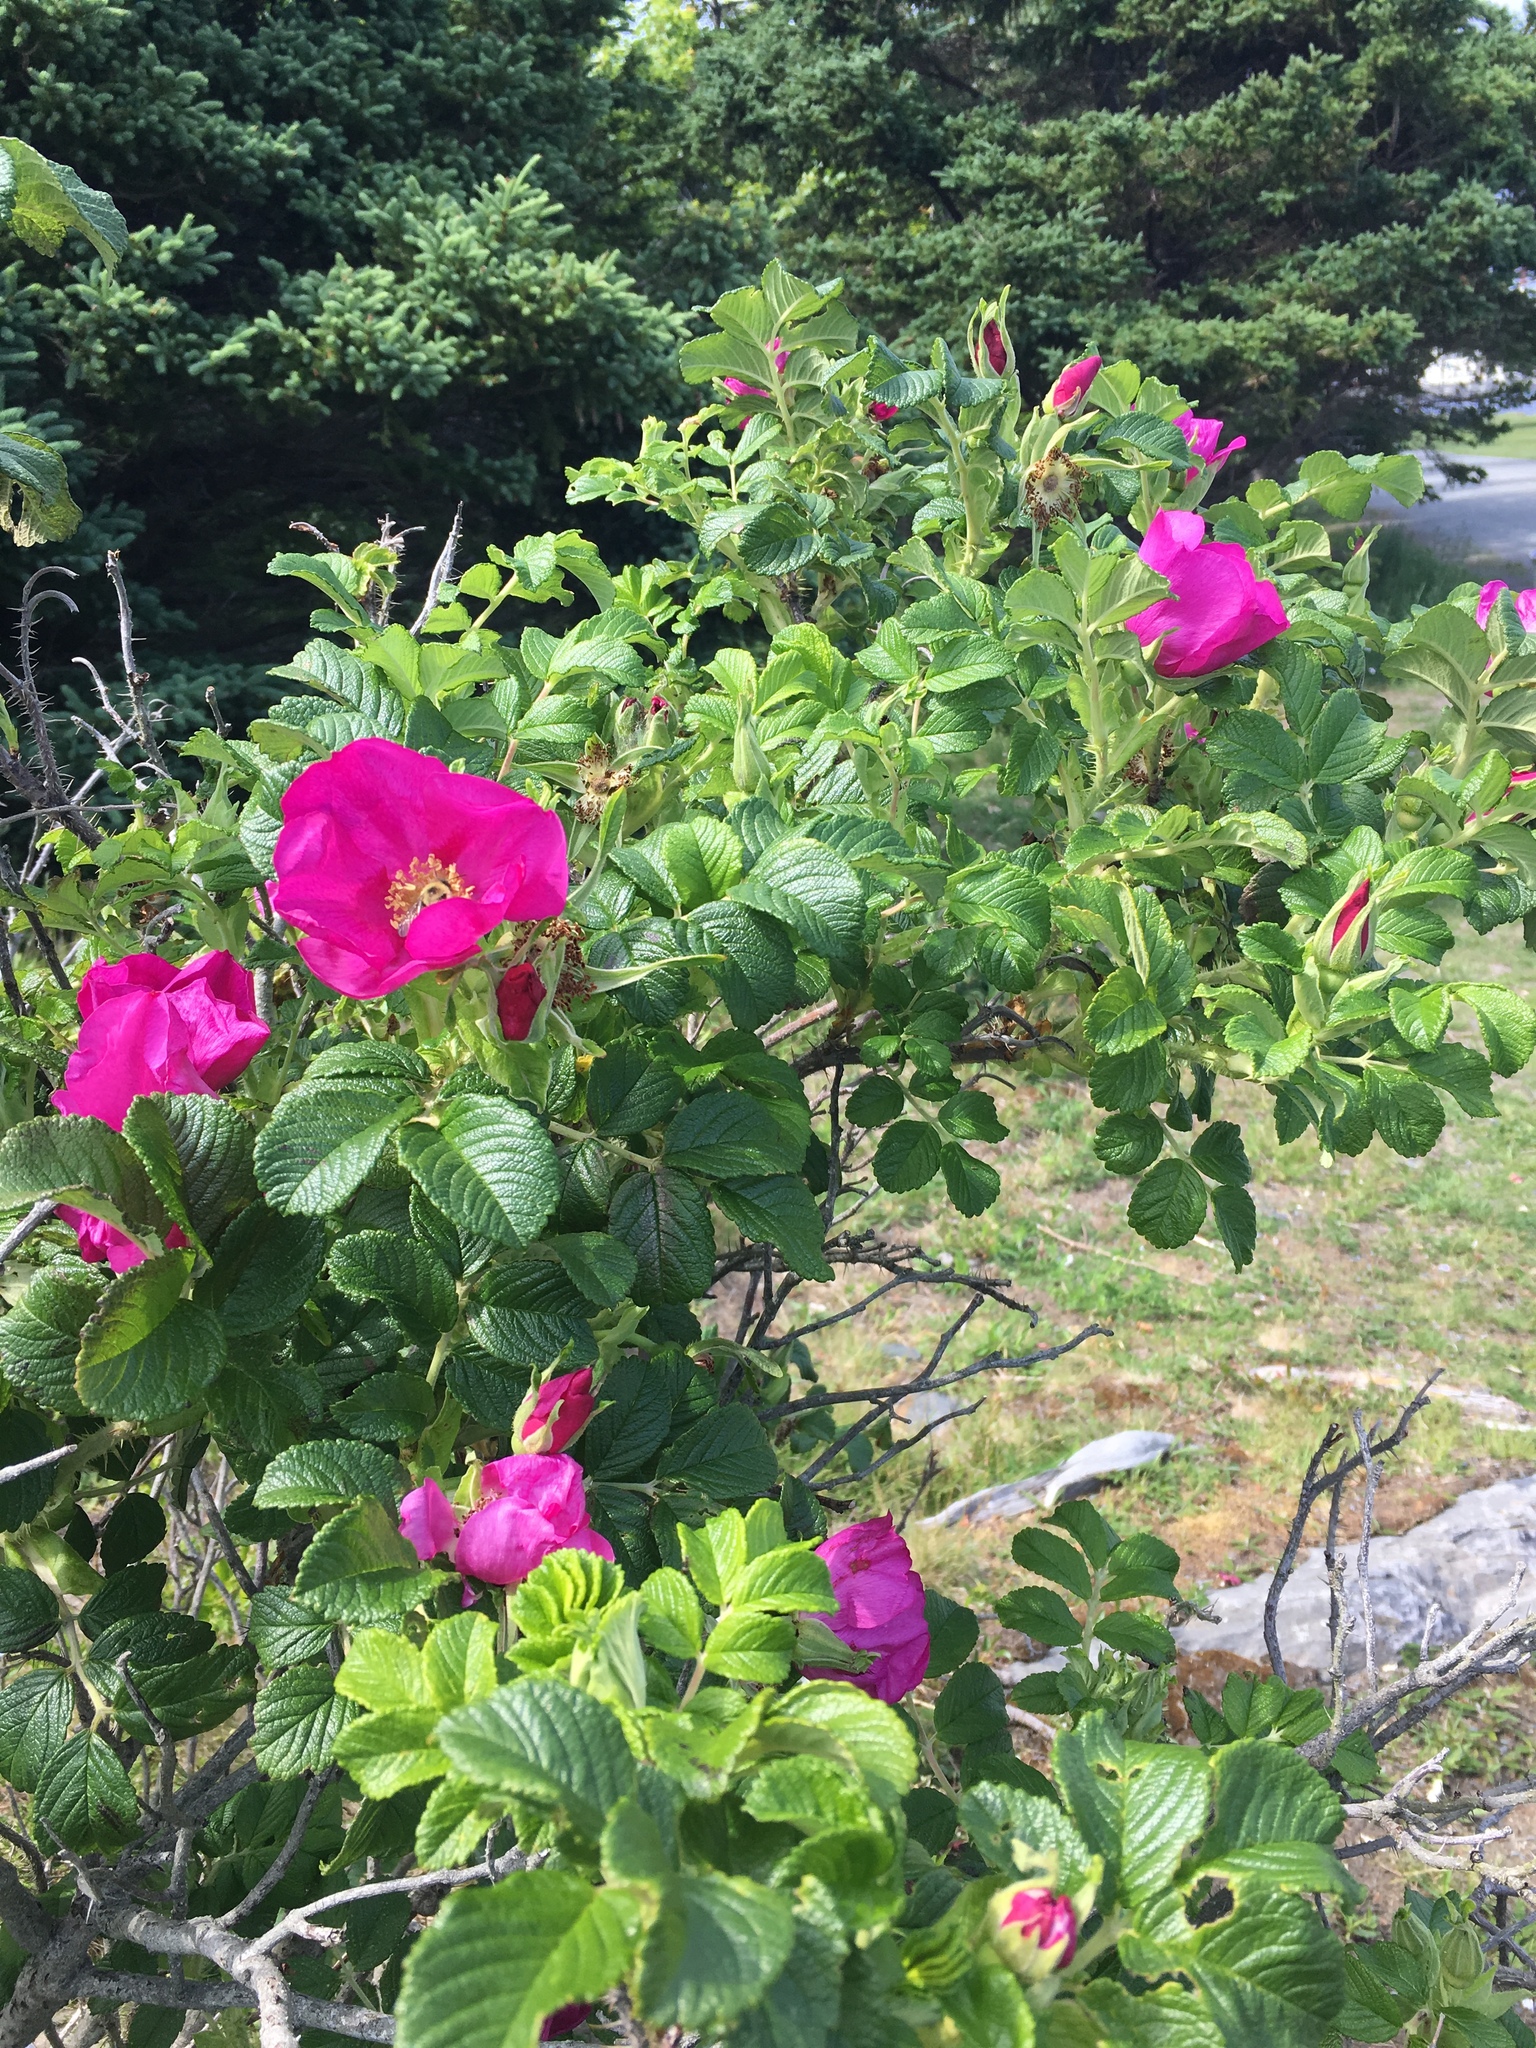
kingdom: Plantae
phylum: Tracheophyta
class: Magnoliopsida
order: Rosales
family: Rosaceae
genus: Rosa
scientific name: Rosa rugosa
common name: Japanese rose
